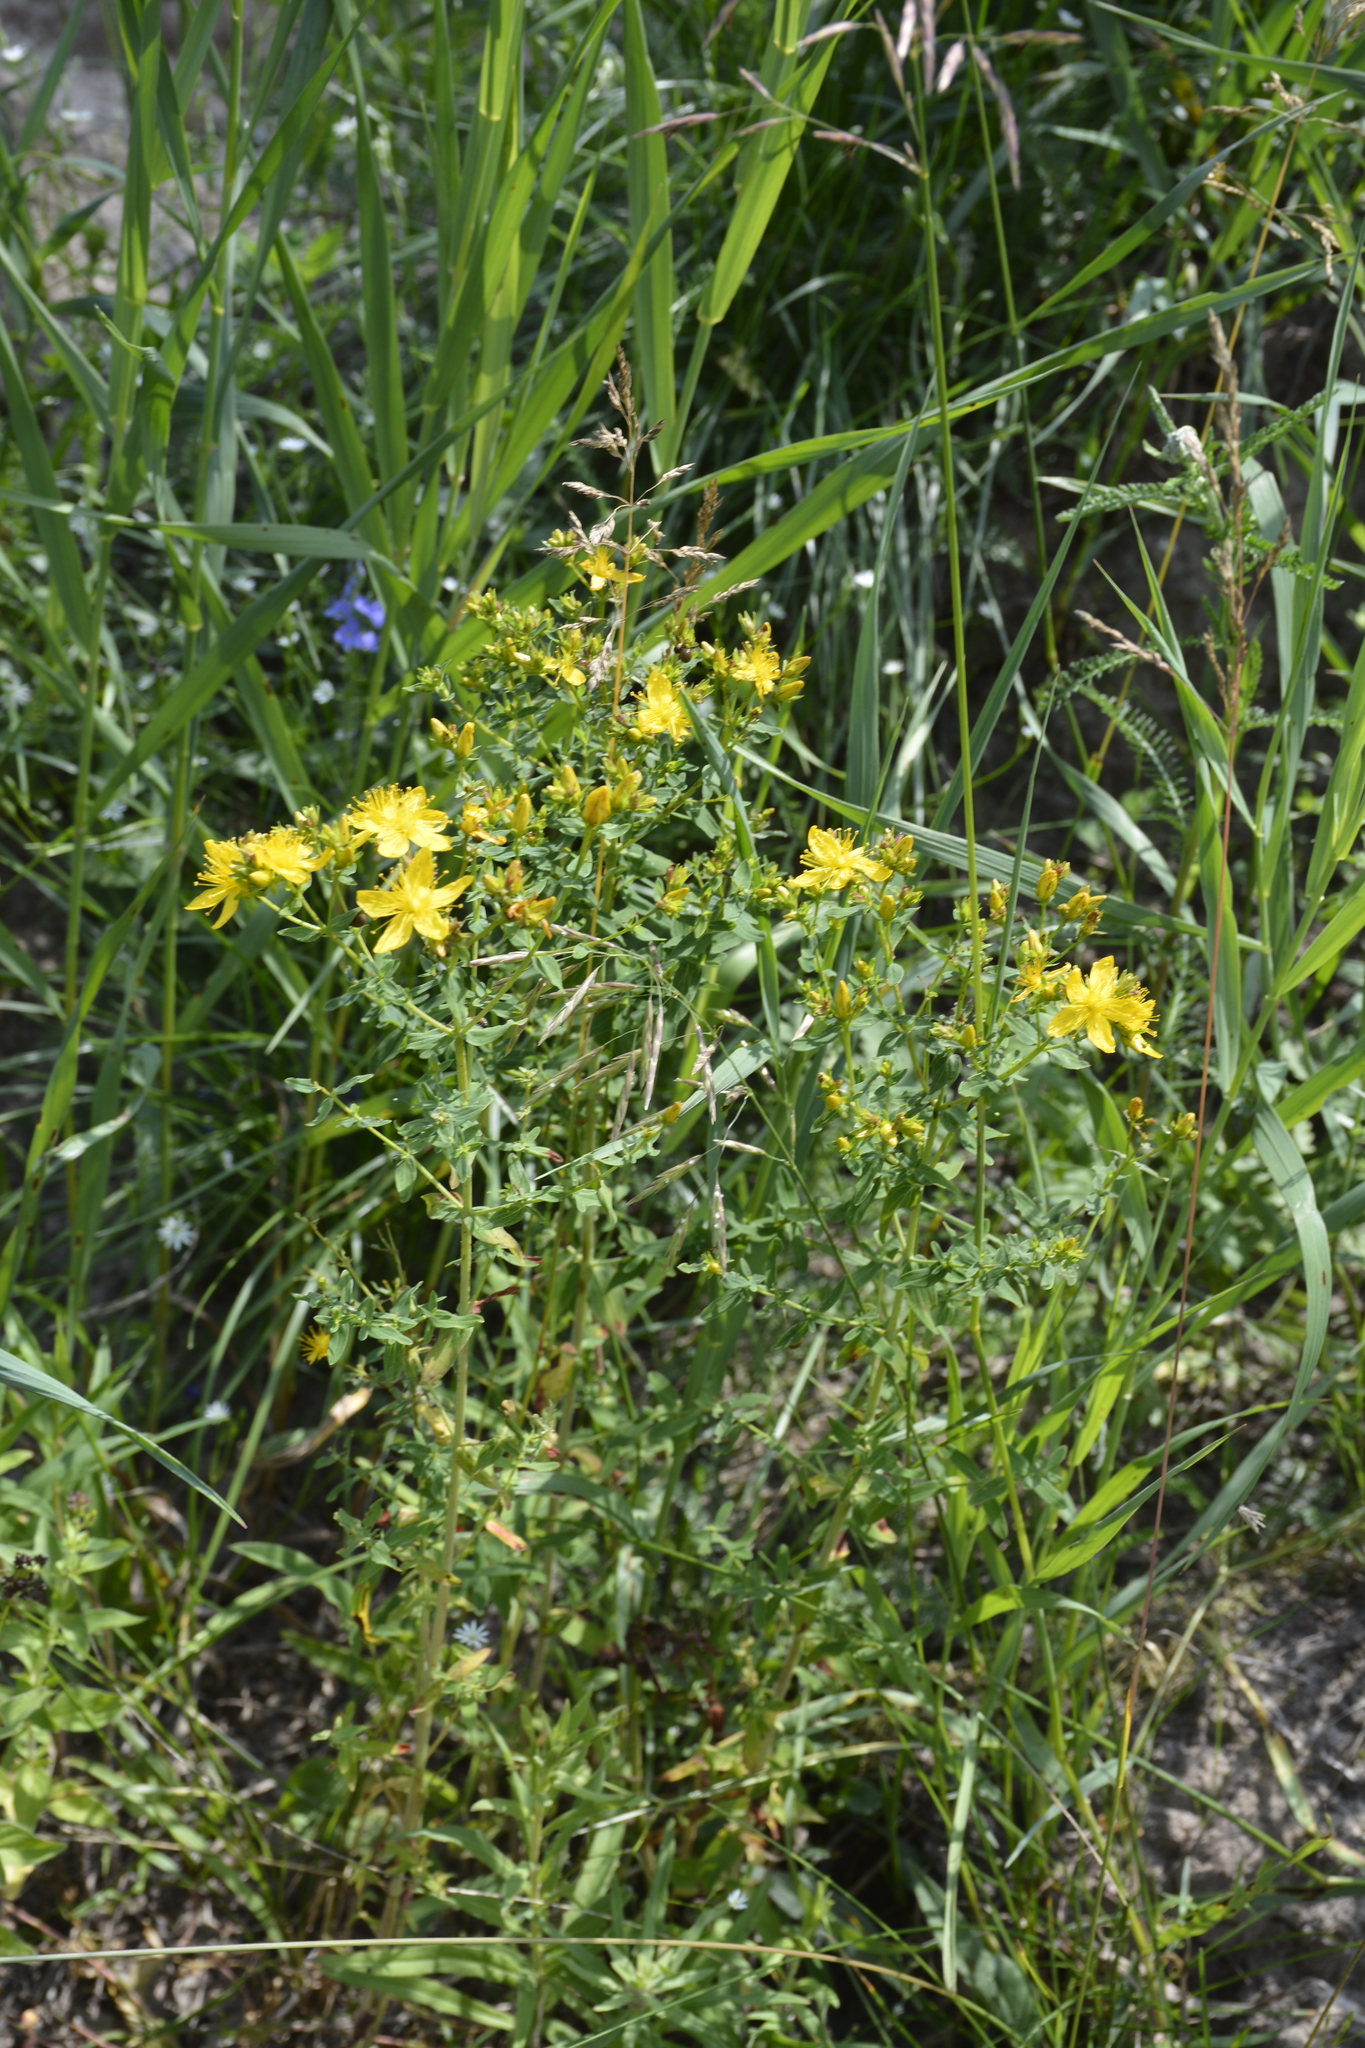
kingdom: Plantae
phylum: Tracheophyta
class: Magnoliopsida
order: Malpighiales
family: Hypericaceae
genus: Hypericum
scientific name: Hypericum perforatum
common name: Common st. johnswort
